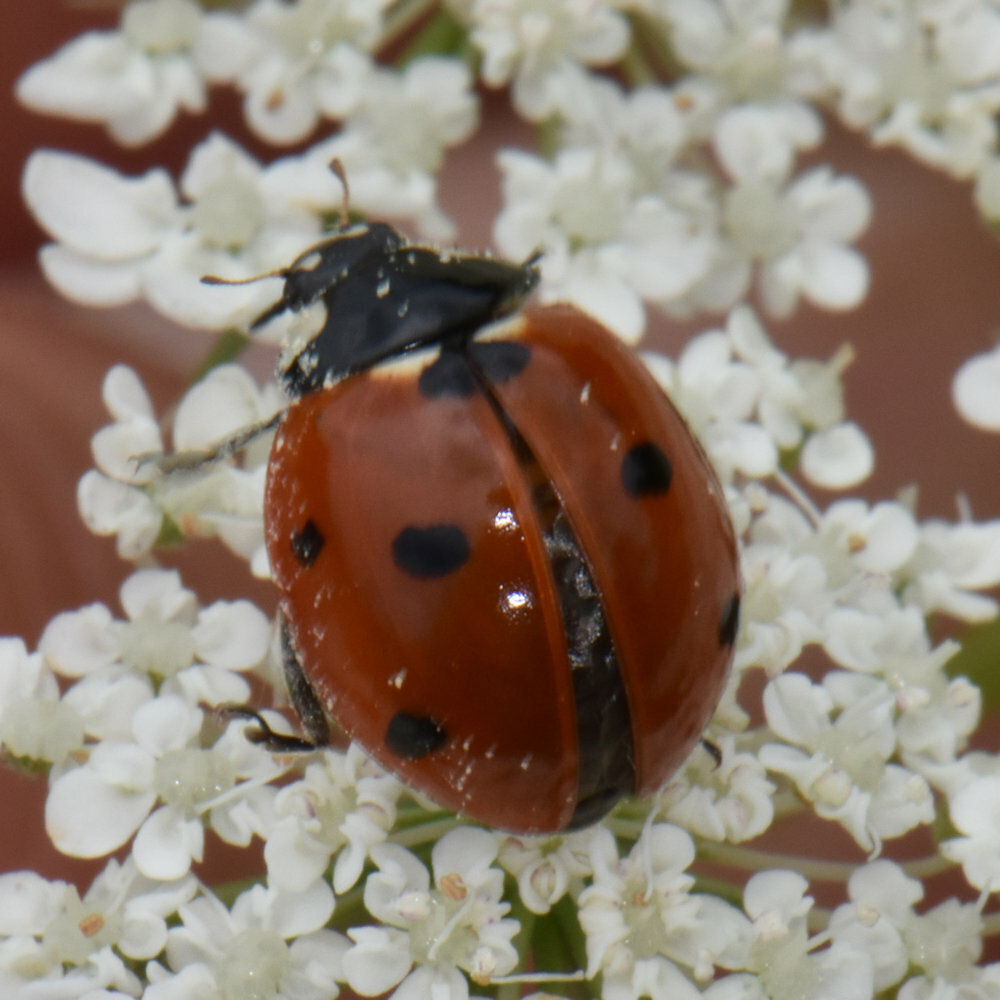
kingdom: Animalia
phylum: Arthropoda
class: Insecta
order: Coleoptera
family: Coccinellidae
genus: Coccinella
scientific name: Coccinella septempunctata
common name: Sevenspotted lady beetle
